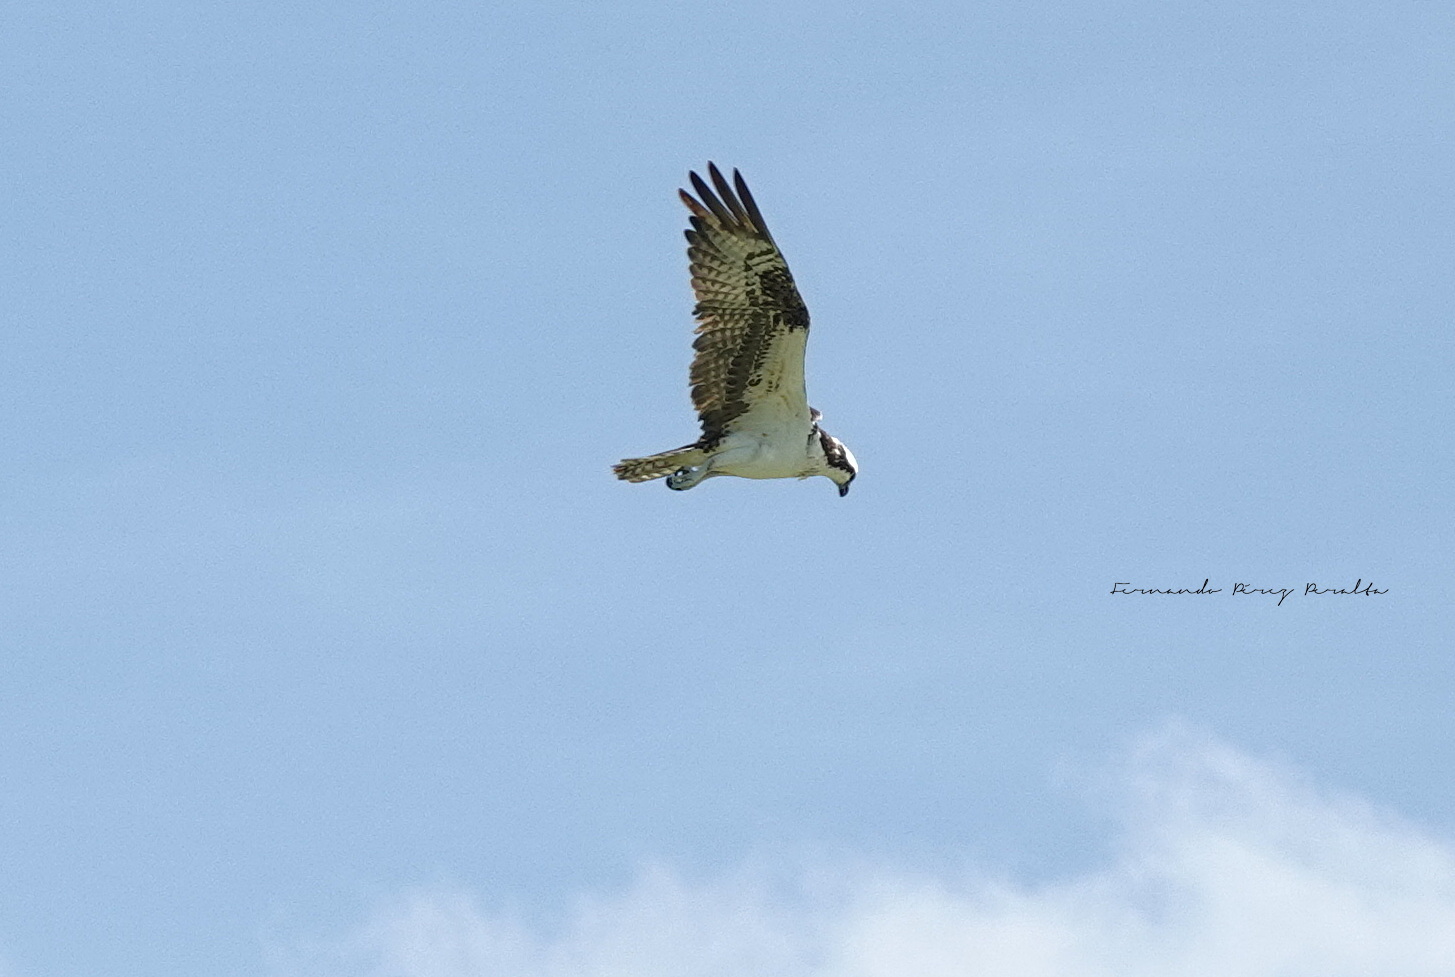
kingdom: Animalia
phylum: Chordata
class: Aves
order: Accipitriformes
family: Pandionidae
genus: Pandion
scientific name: Pandion haliaetus
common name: Osprey
